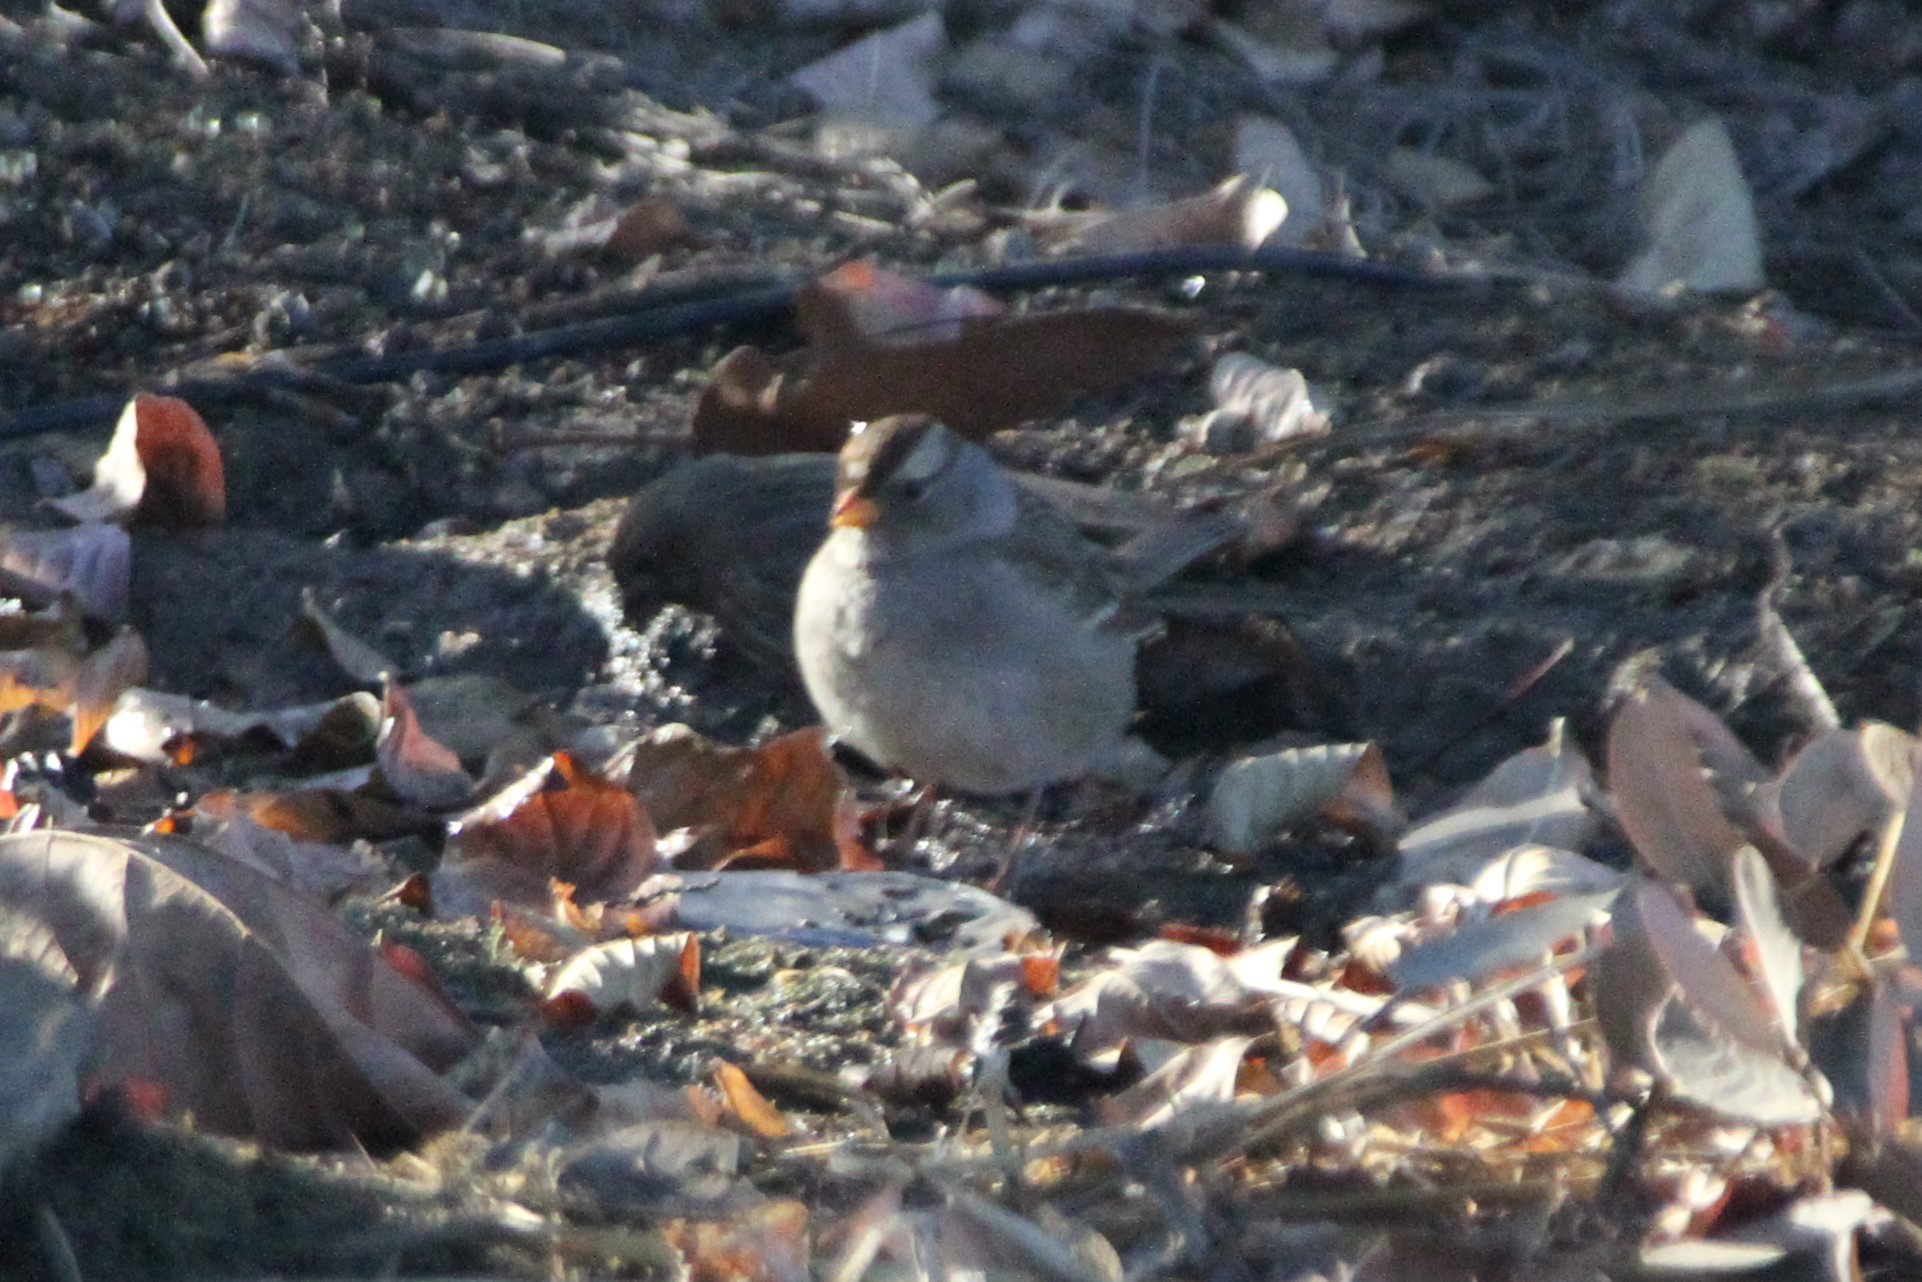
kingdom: Animalia
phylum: Chordata
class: Aves
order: Passeriformes
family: Passerellidae
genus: Zonotrichia
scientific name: Zonotrichia leucophrys
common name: White-crowned sparrow
